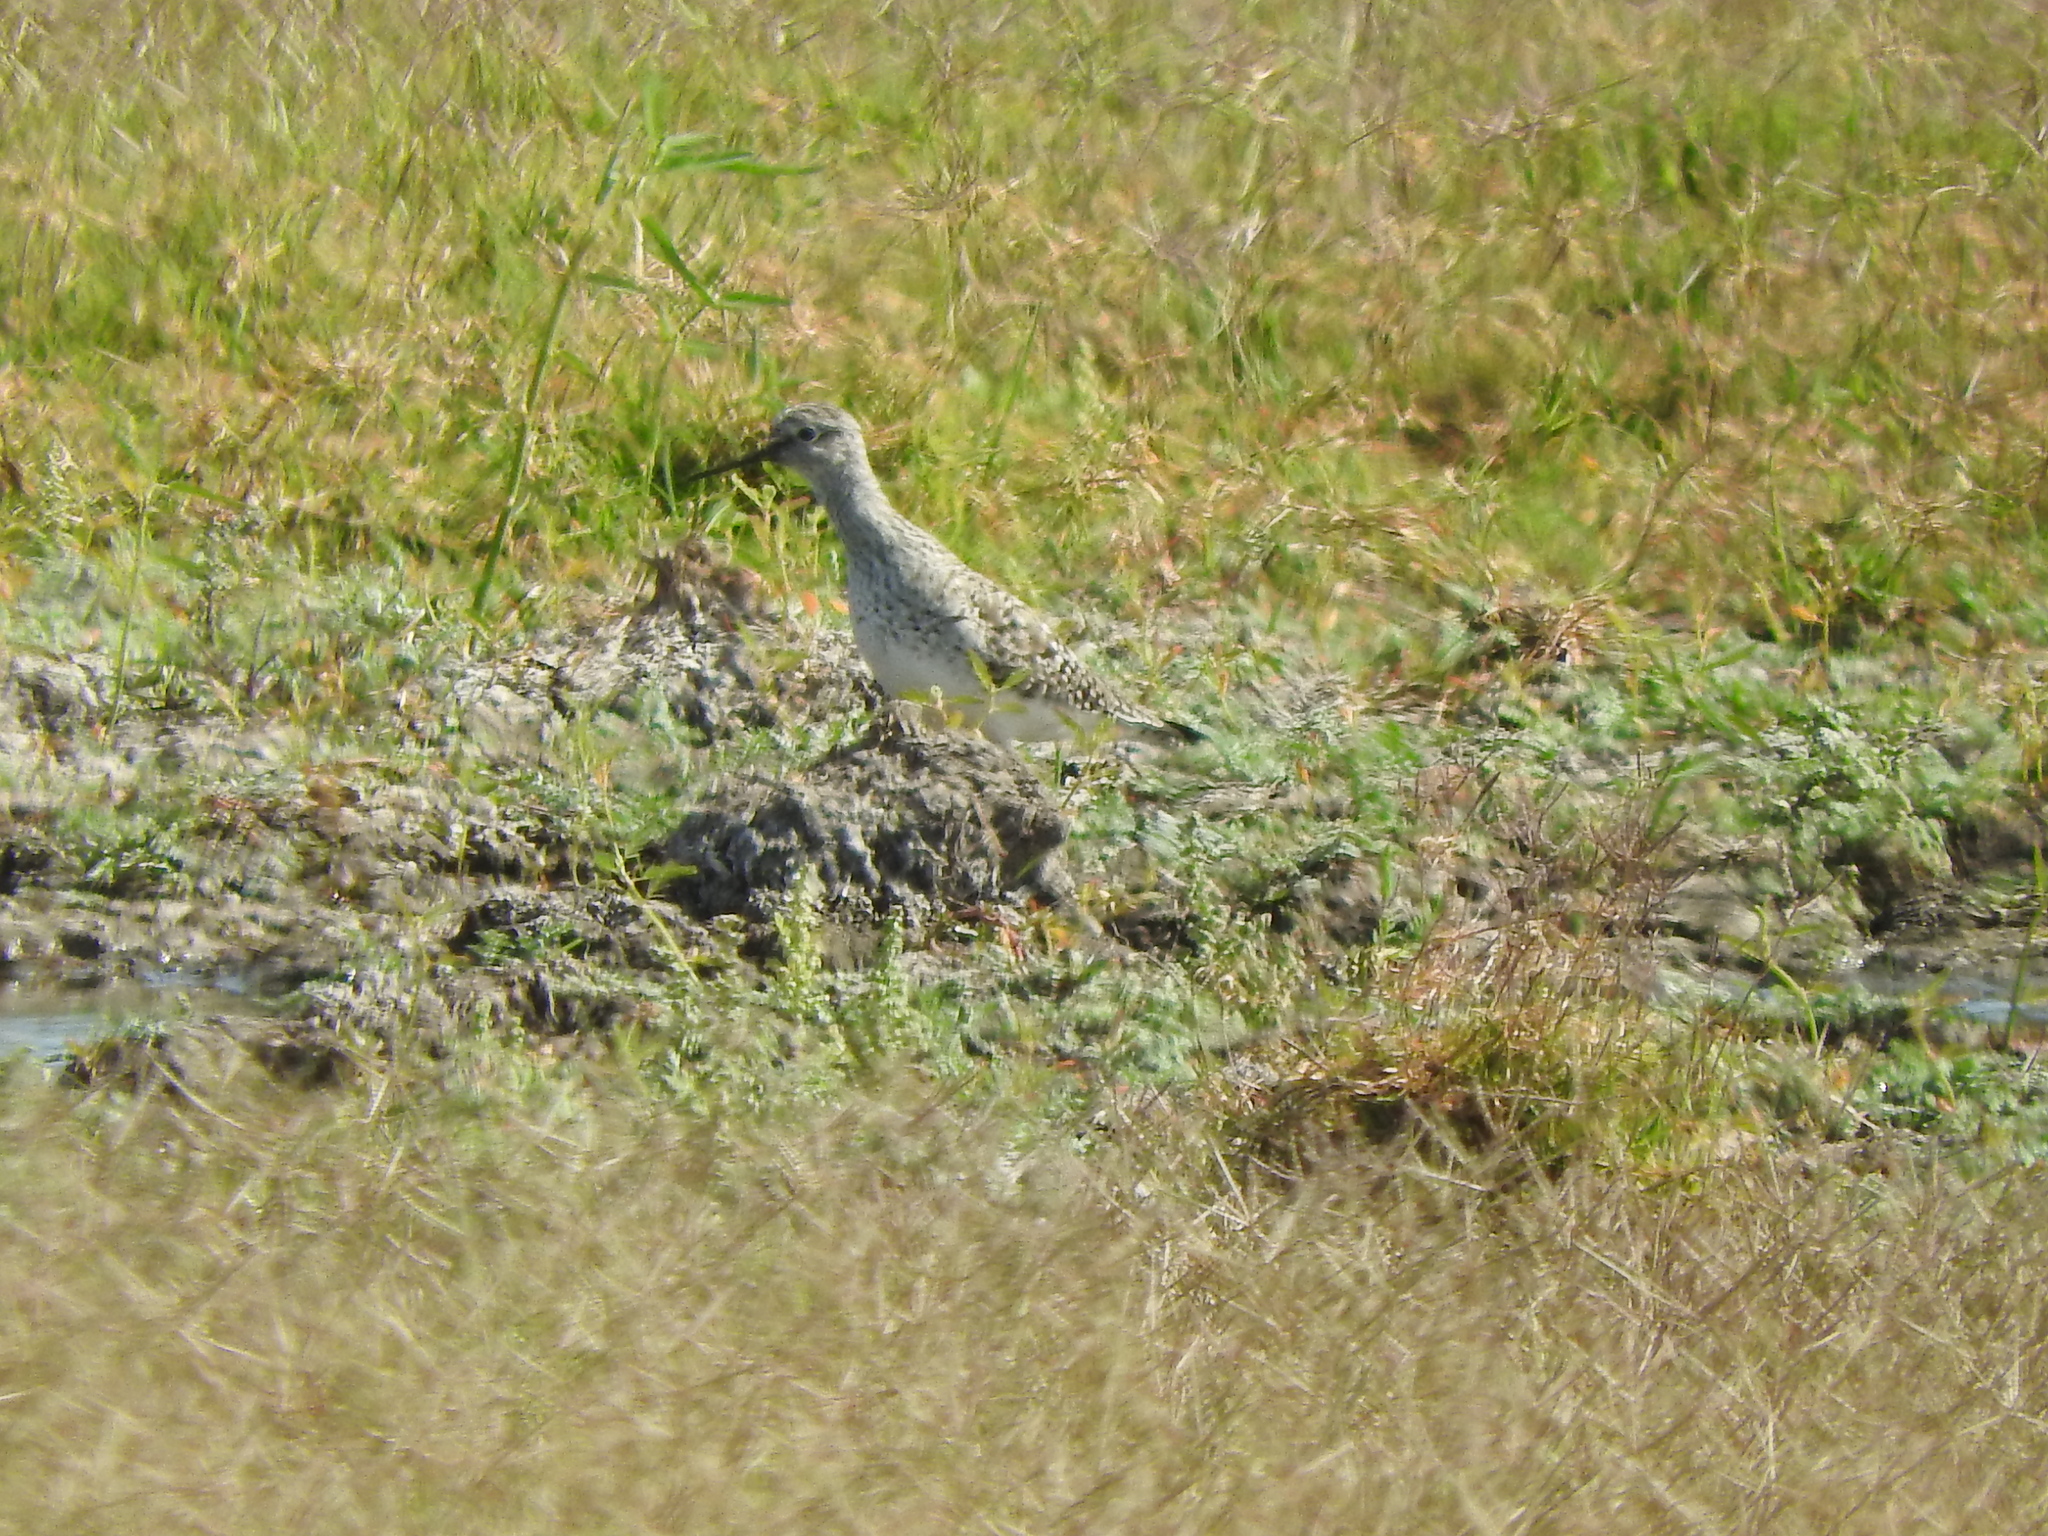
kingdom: Animalia
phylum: Chordata
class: Aves
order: Charadriiformes
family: Scolopacidae
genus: Phalaropus
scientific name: Phalaropus tricolor
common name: Wilson's phalarope
